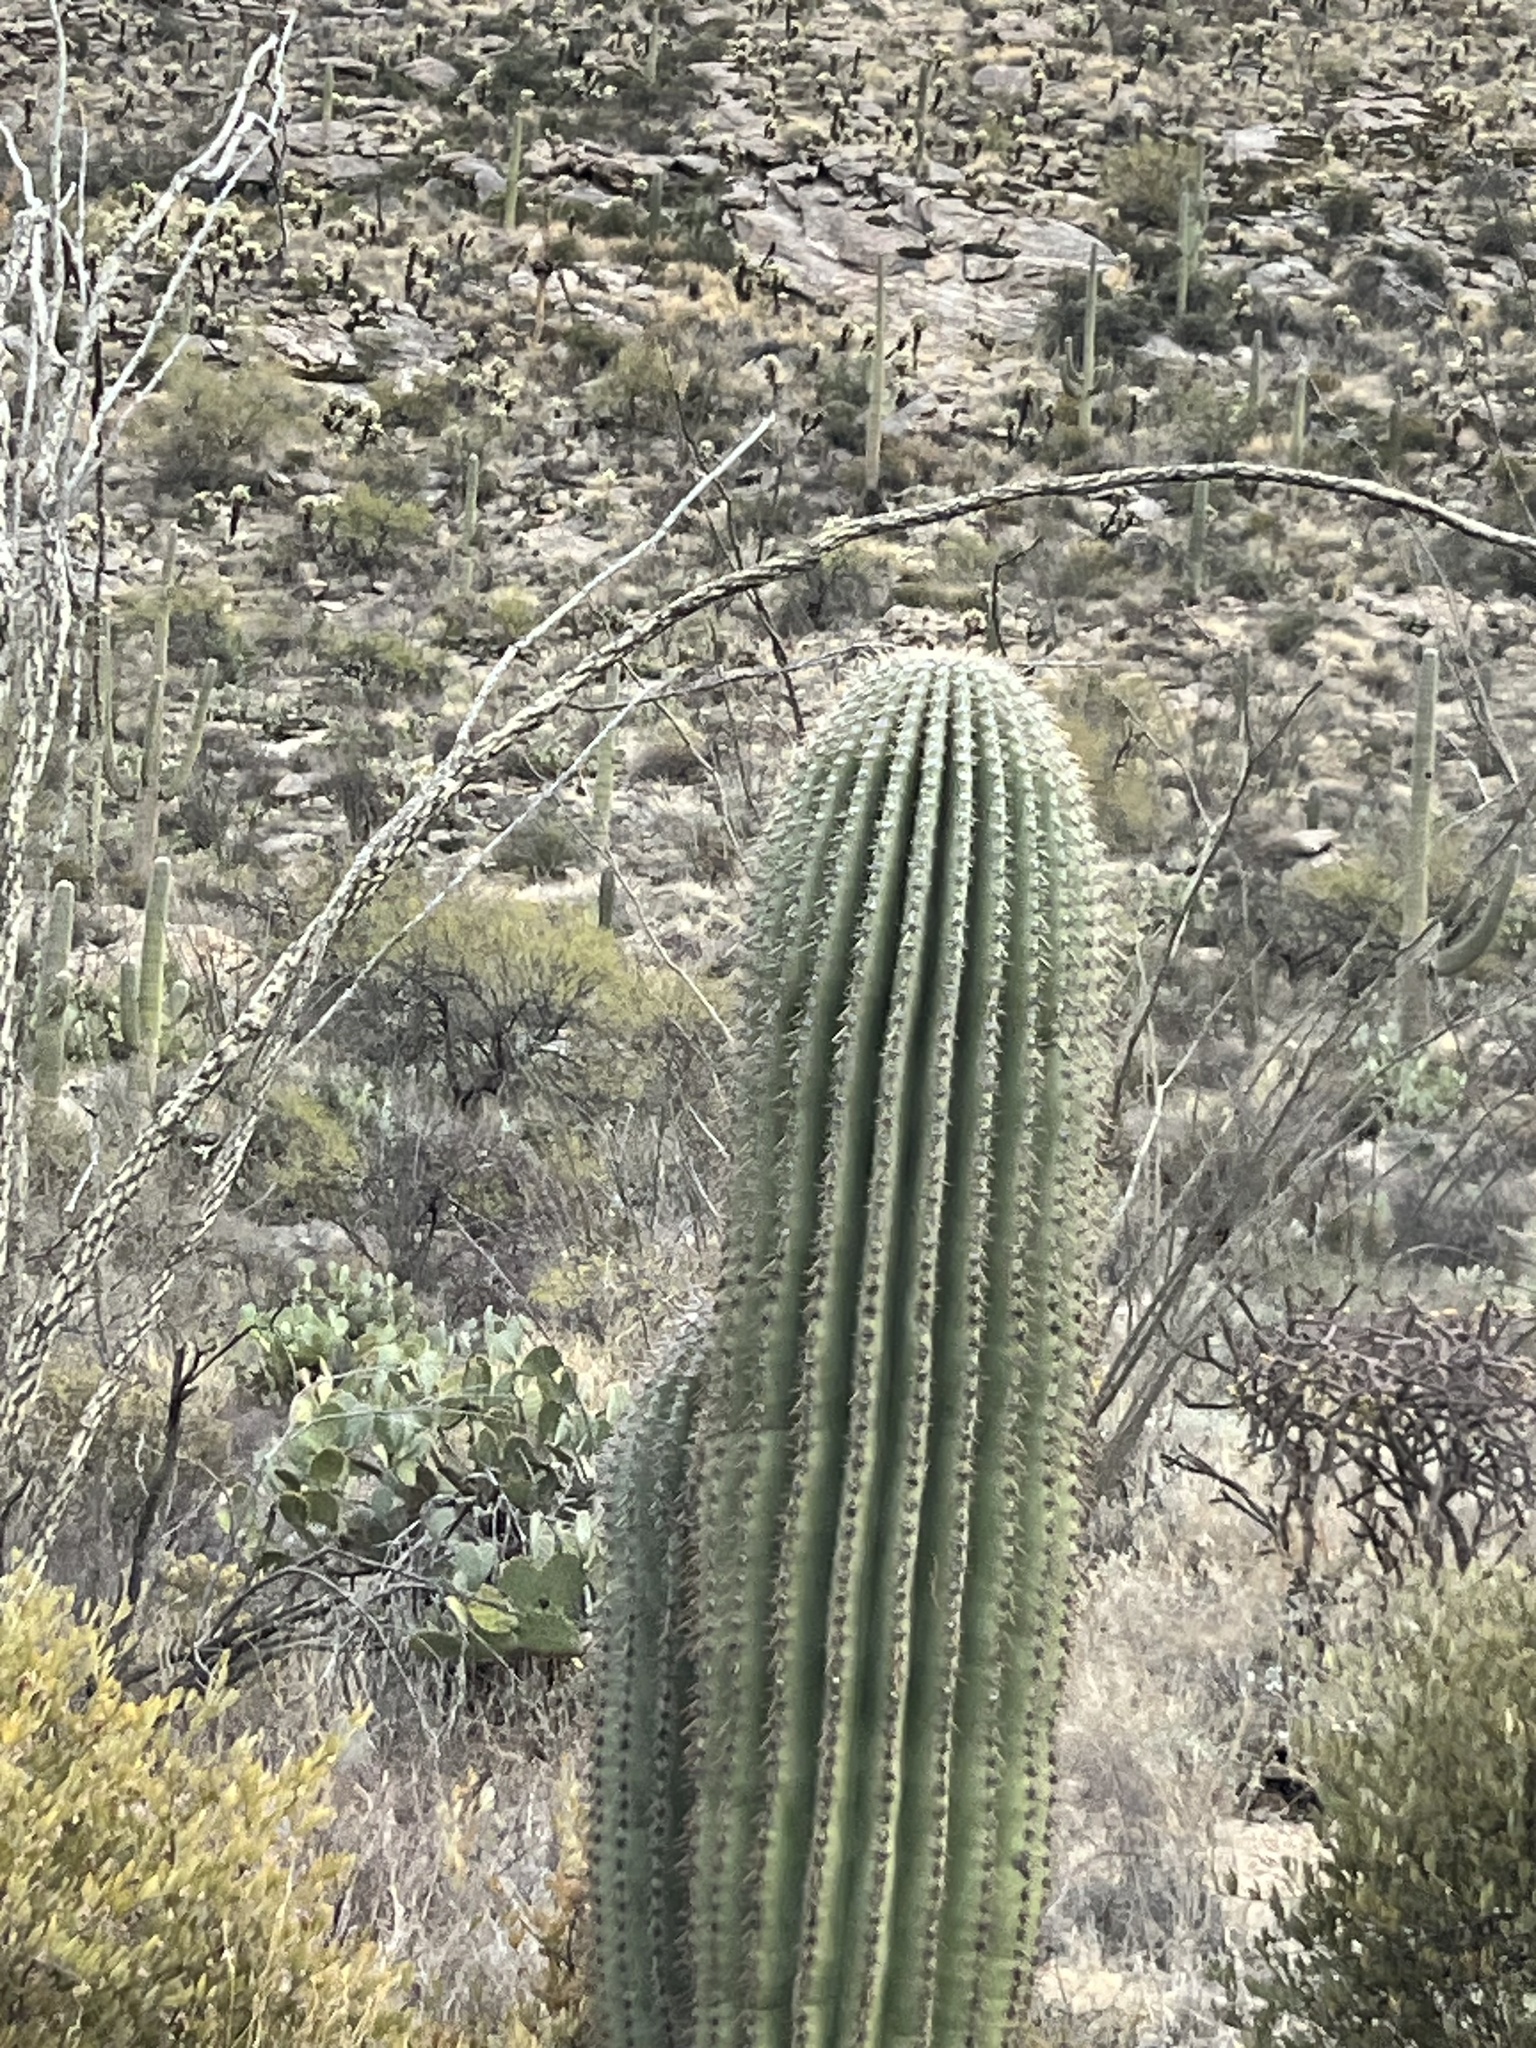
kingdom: Plantae
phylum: Tracheophyta
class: Magnoliopsida
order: Caryophyllales
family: Cactaceae
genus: Carnegiea
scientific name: Carnegiea gigantea
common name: Saguaro
